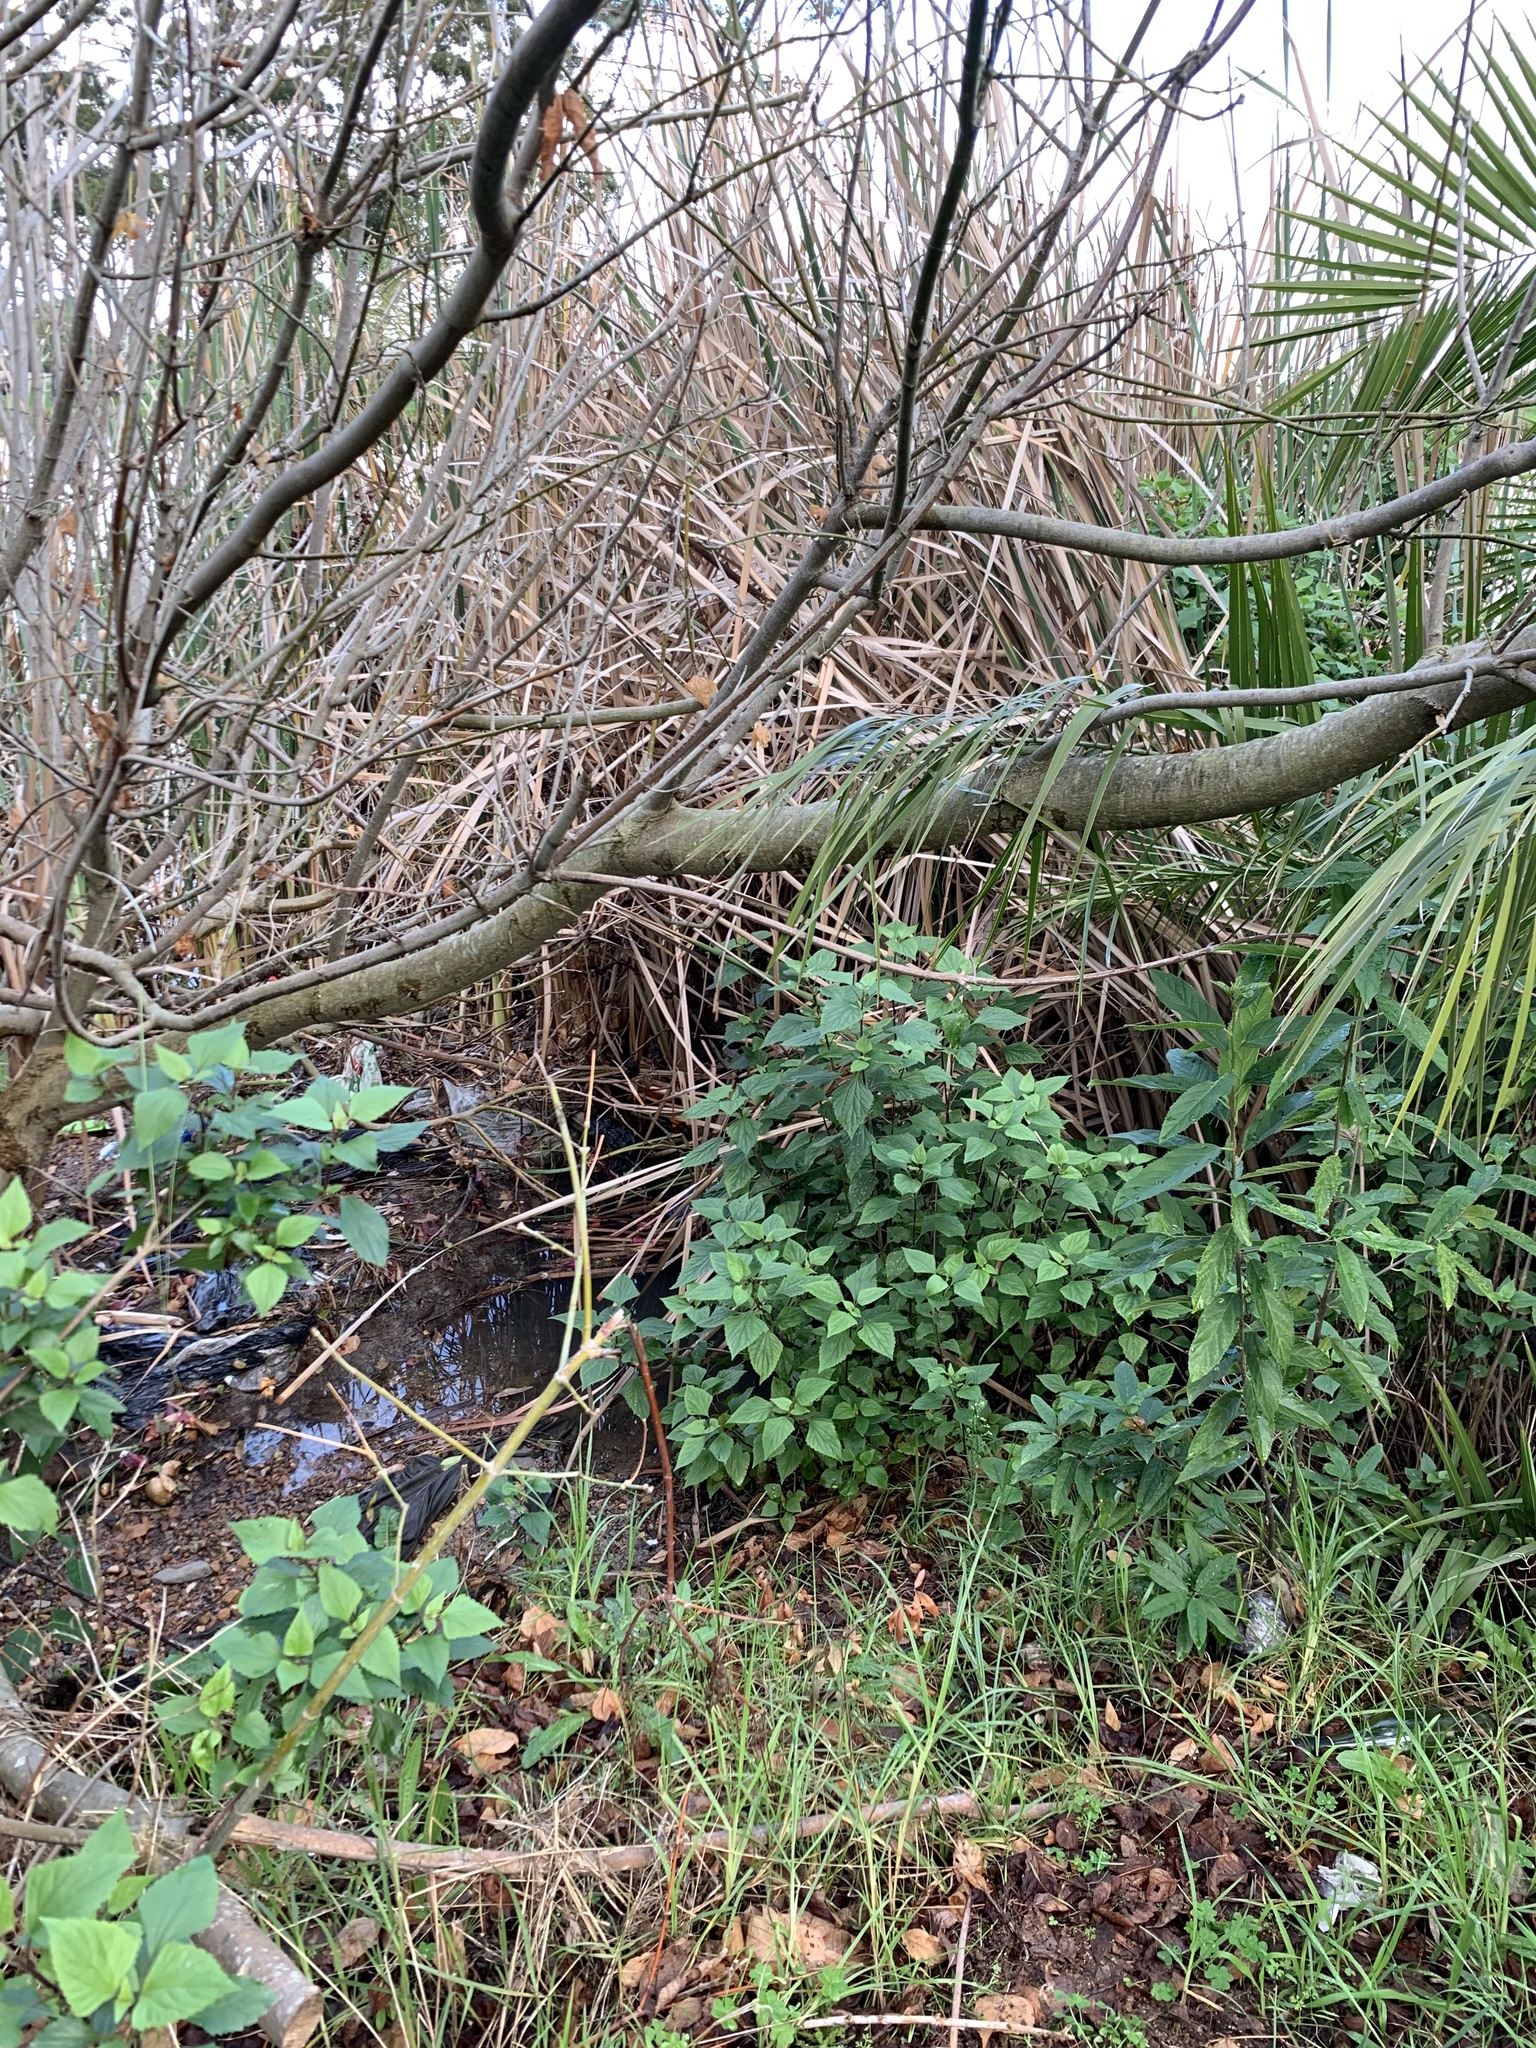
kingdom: Plantae
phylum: Tracheophyta
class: Magnoliopsida
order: Asterales
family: Asteraceae
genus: Ageratina
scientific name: Ageratina adenophora
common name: Sticky snakeroot
